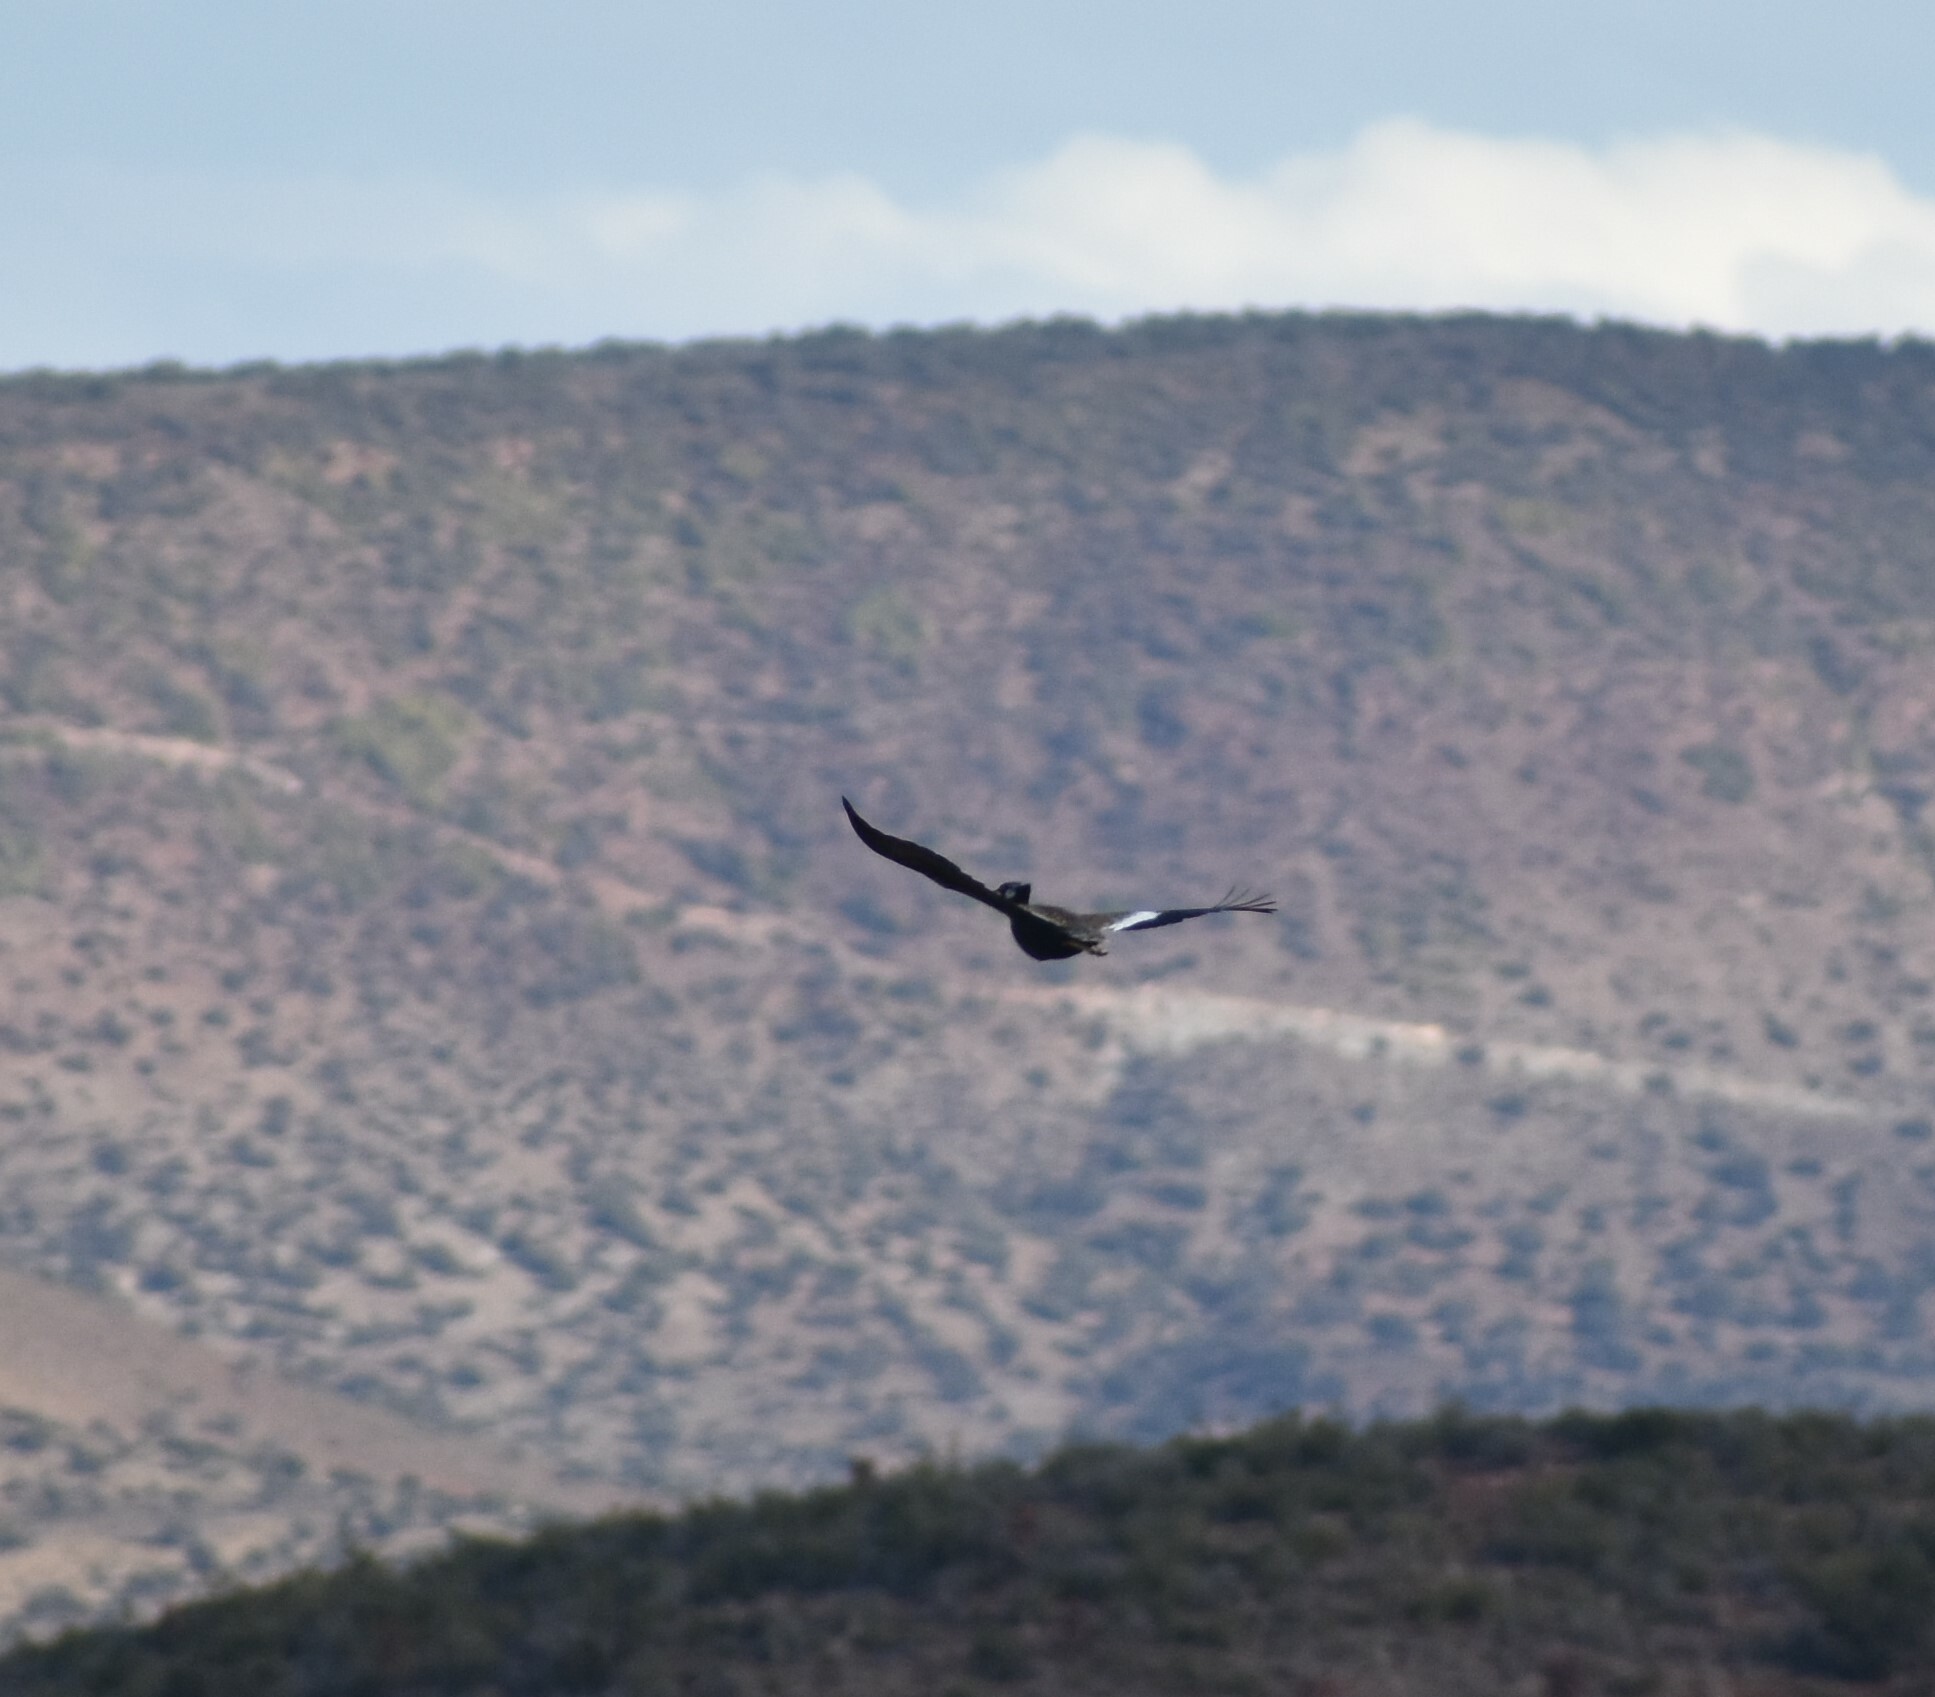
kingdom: Animalia
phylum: Chordata
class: Aves
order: Otidiformes
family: Otididae
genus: Afrotis
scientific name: Afrotis afra
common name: Southern black korhaan
